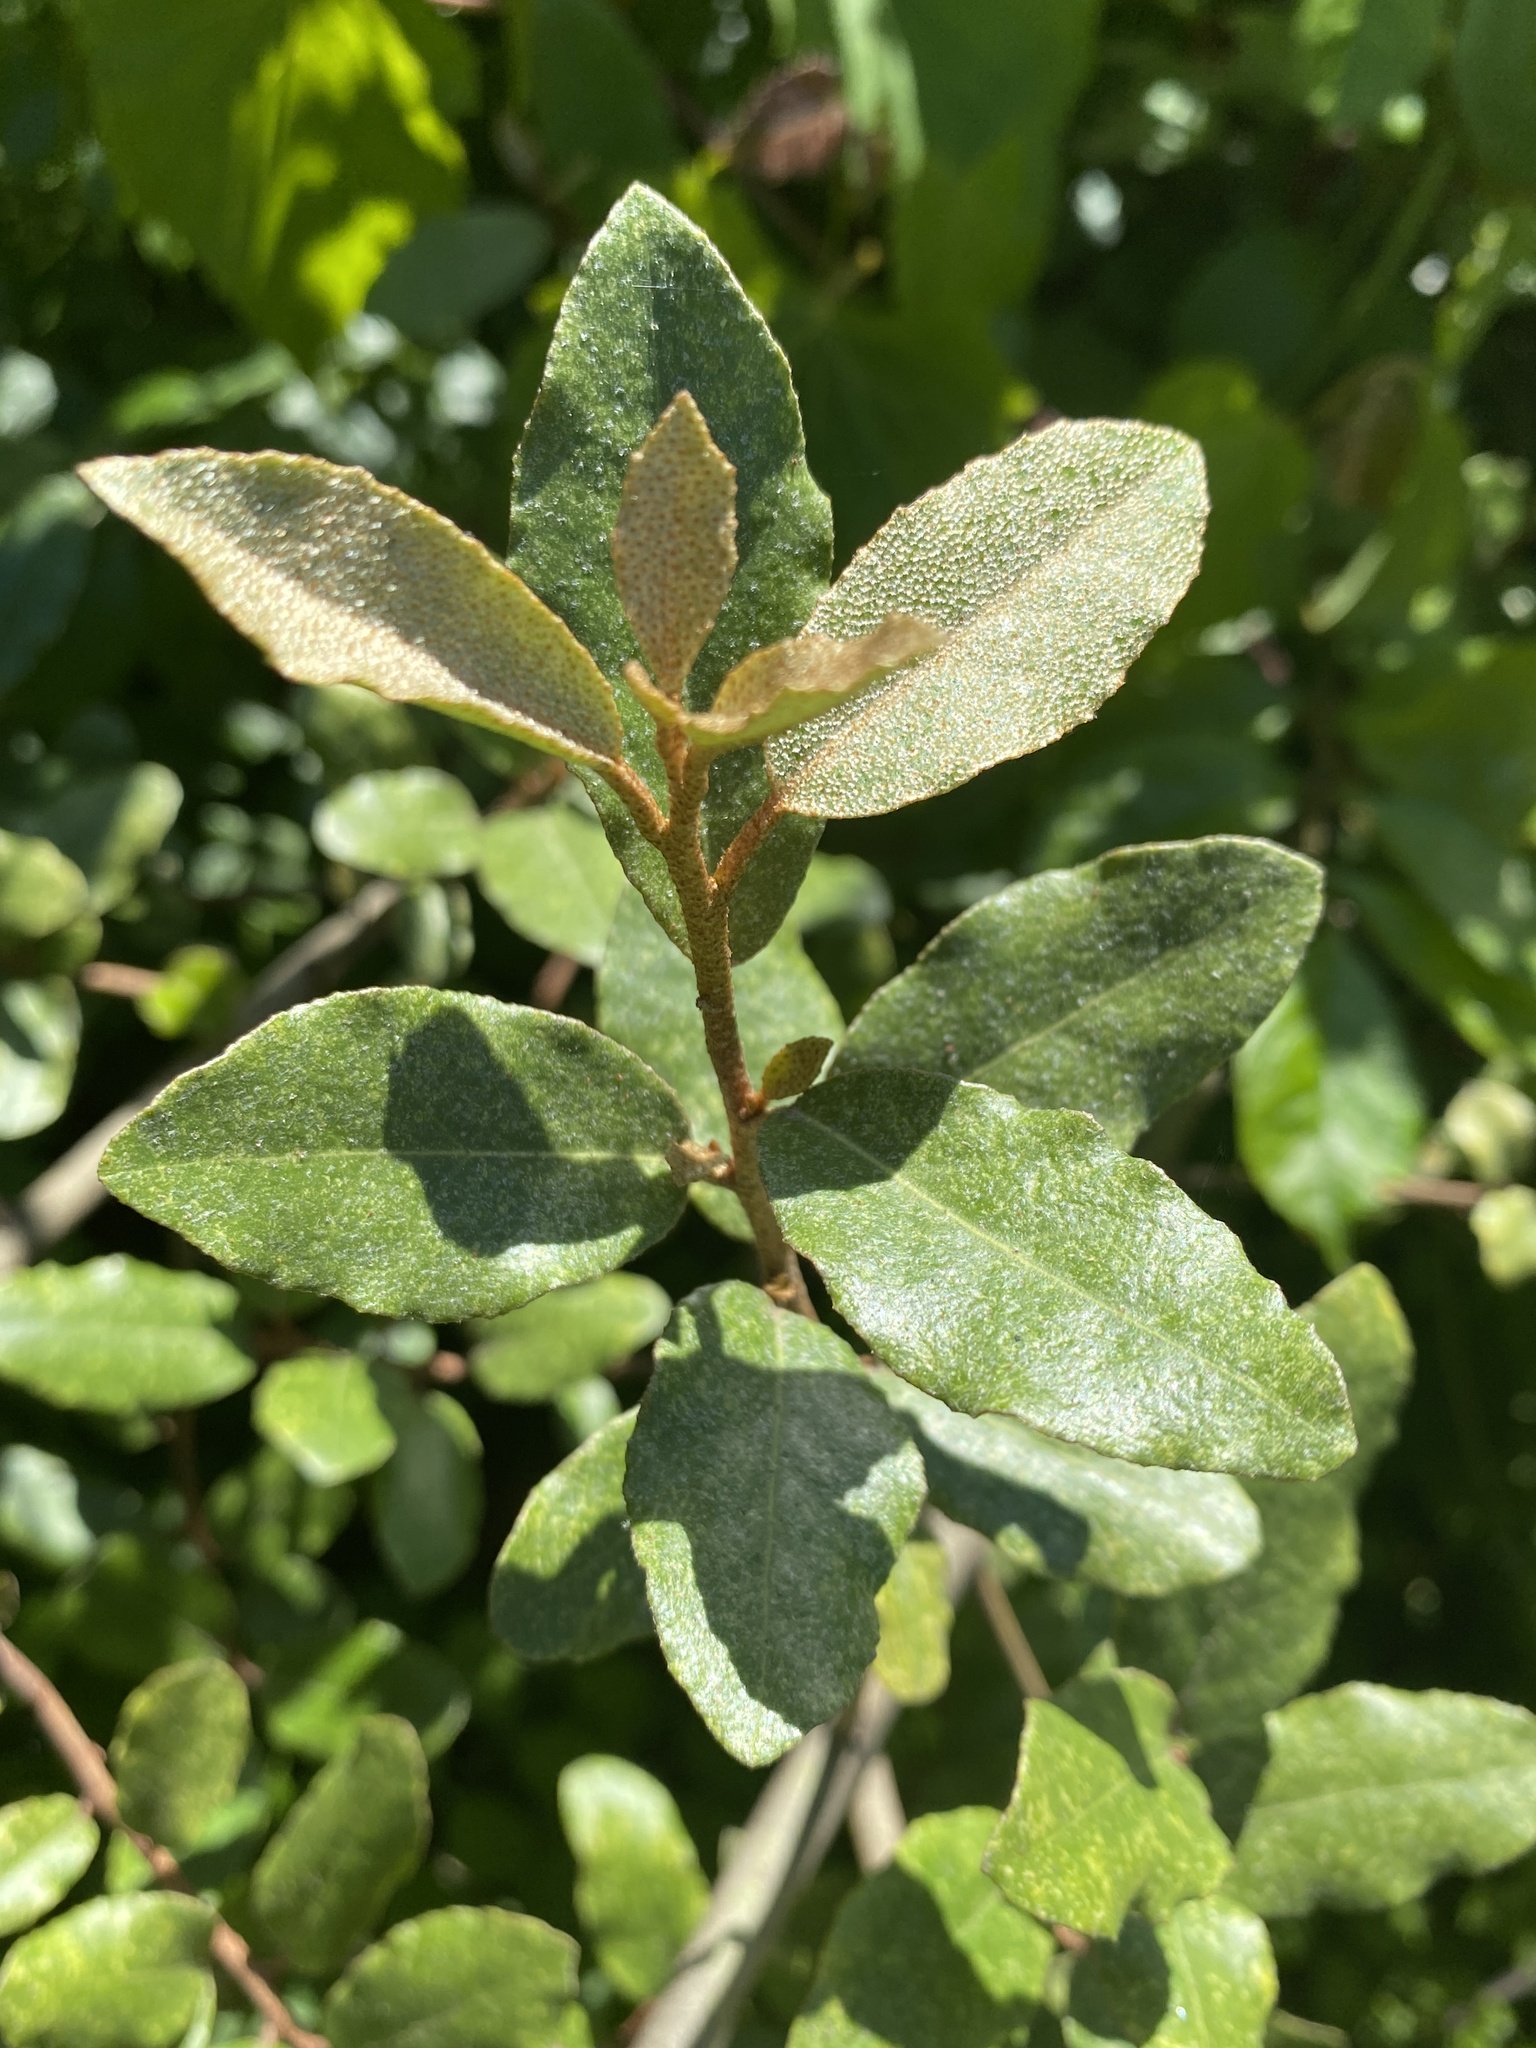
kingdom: Plantae
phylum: Tracheophyta
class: Magnoliopsida
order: Rosales
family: Elaeagnaceae
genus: Elaeagnus
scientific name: Elaeagnus pungens
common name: Spiny oleaster
